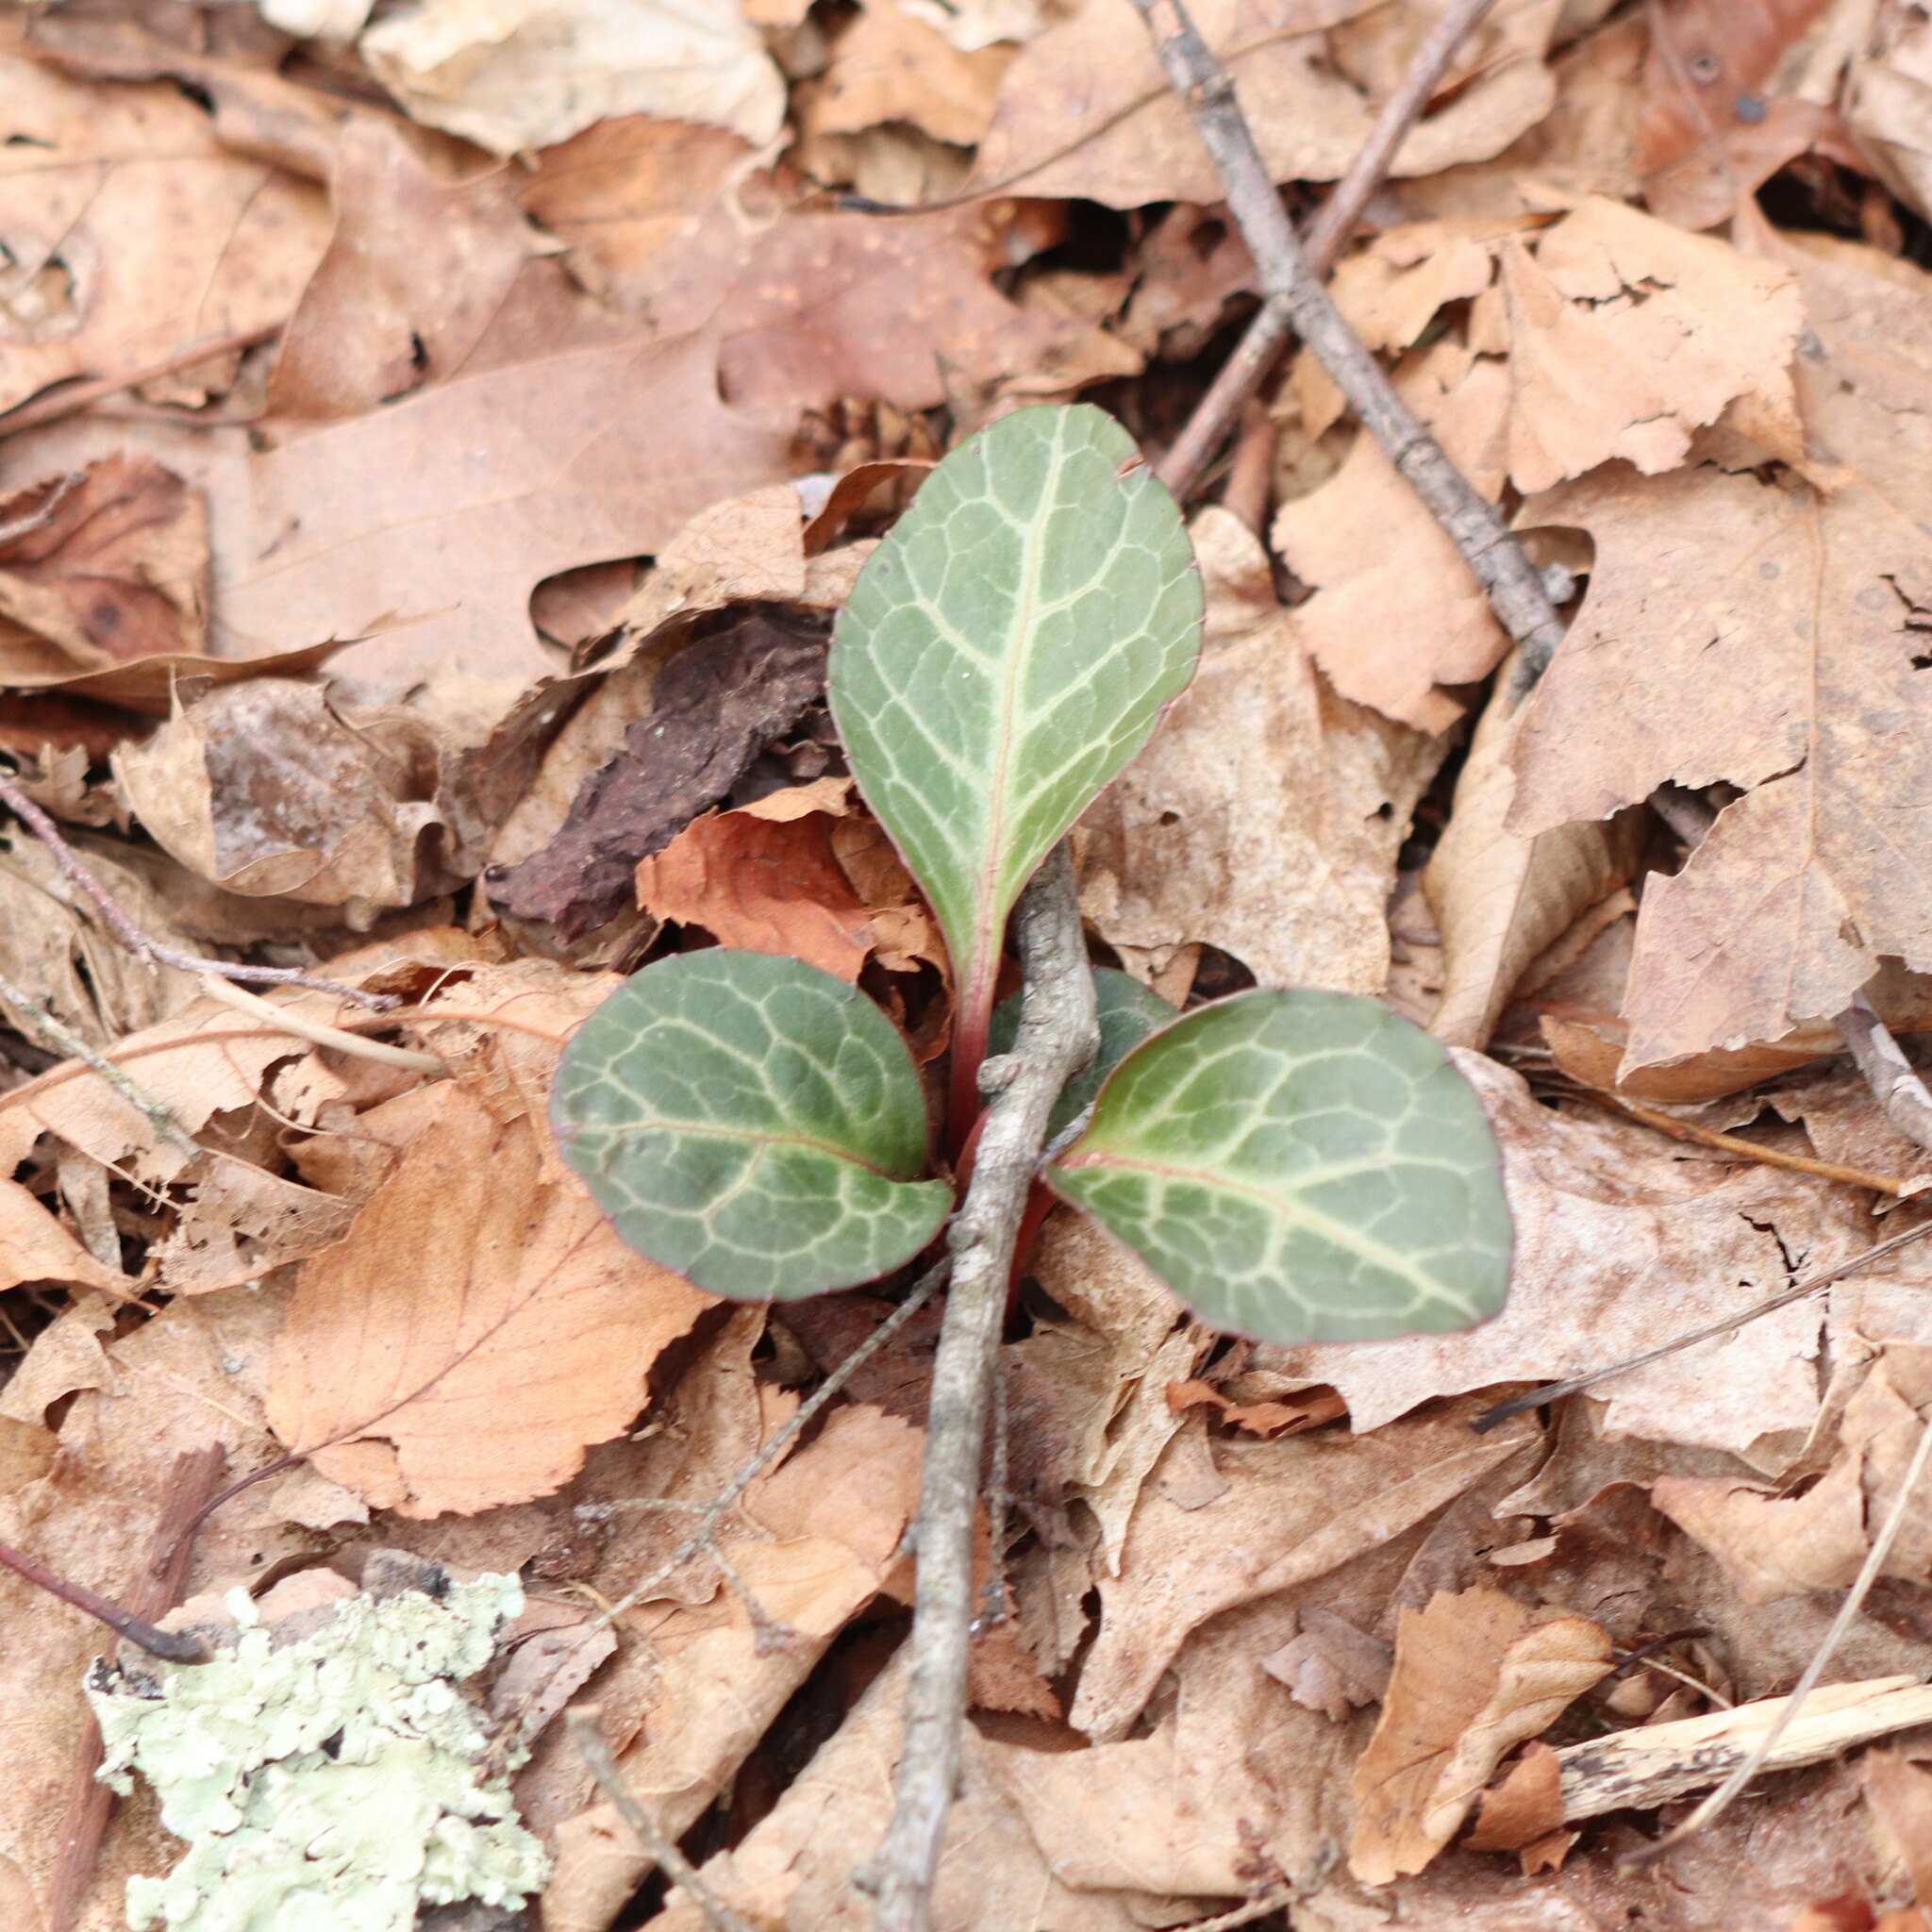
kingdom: Plantae
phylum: Tracheophyta
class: Magnoliopsida
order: Ericales
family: Ericaceae
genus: Pyrola
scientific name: Pyrola americana
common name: American wintergreen
